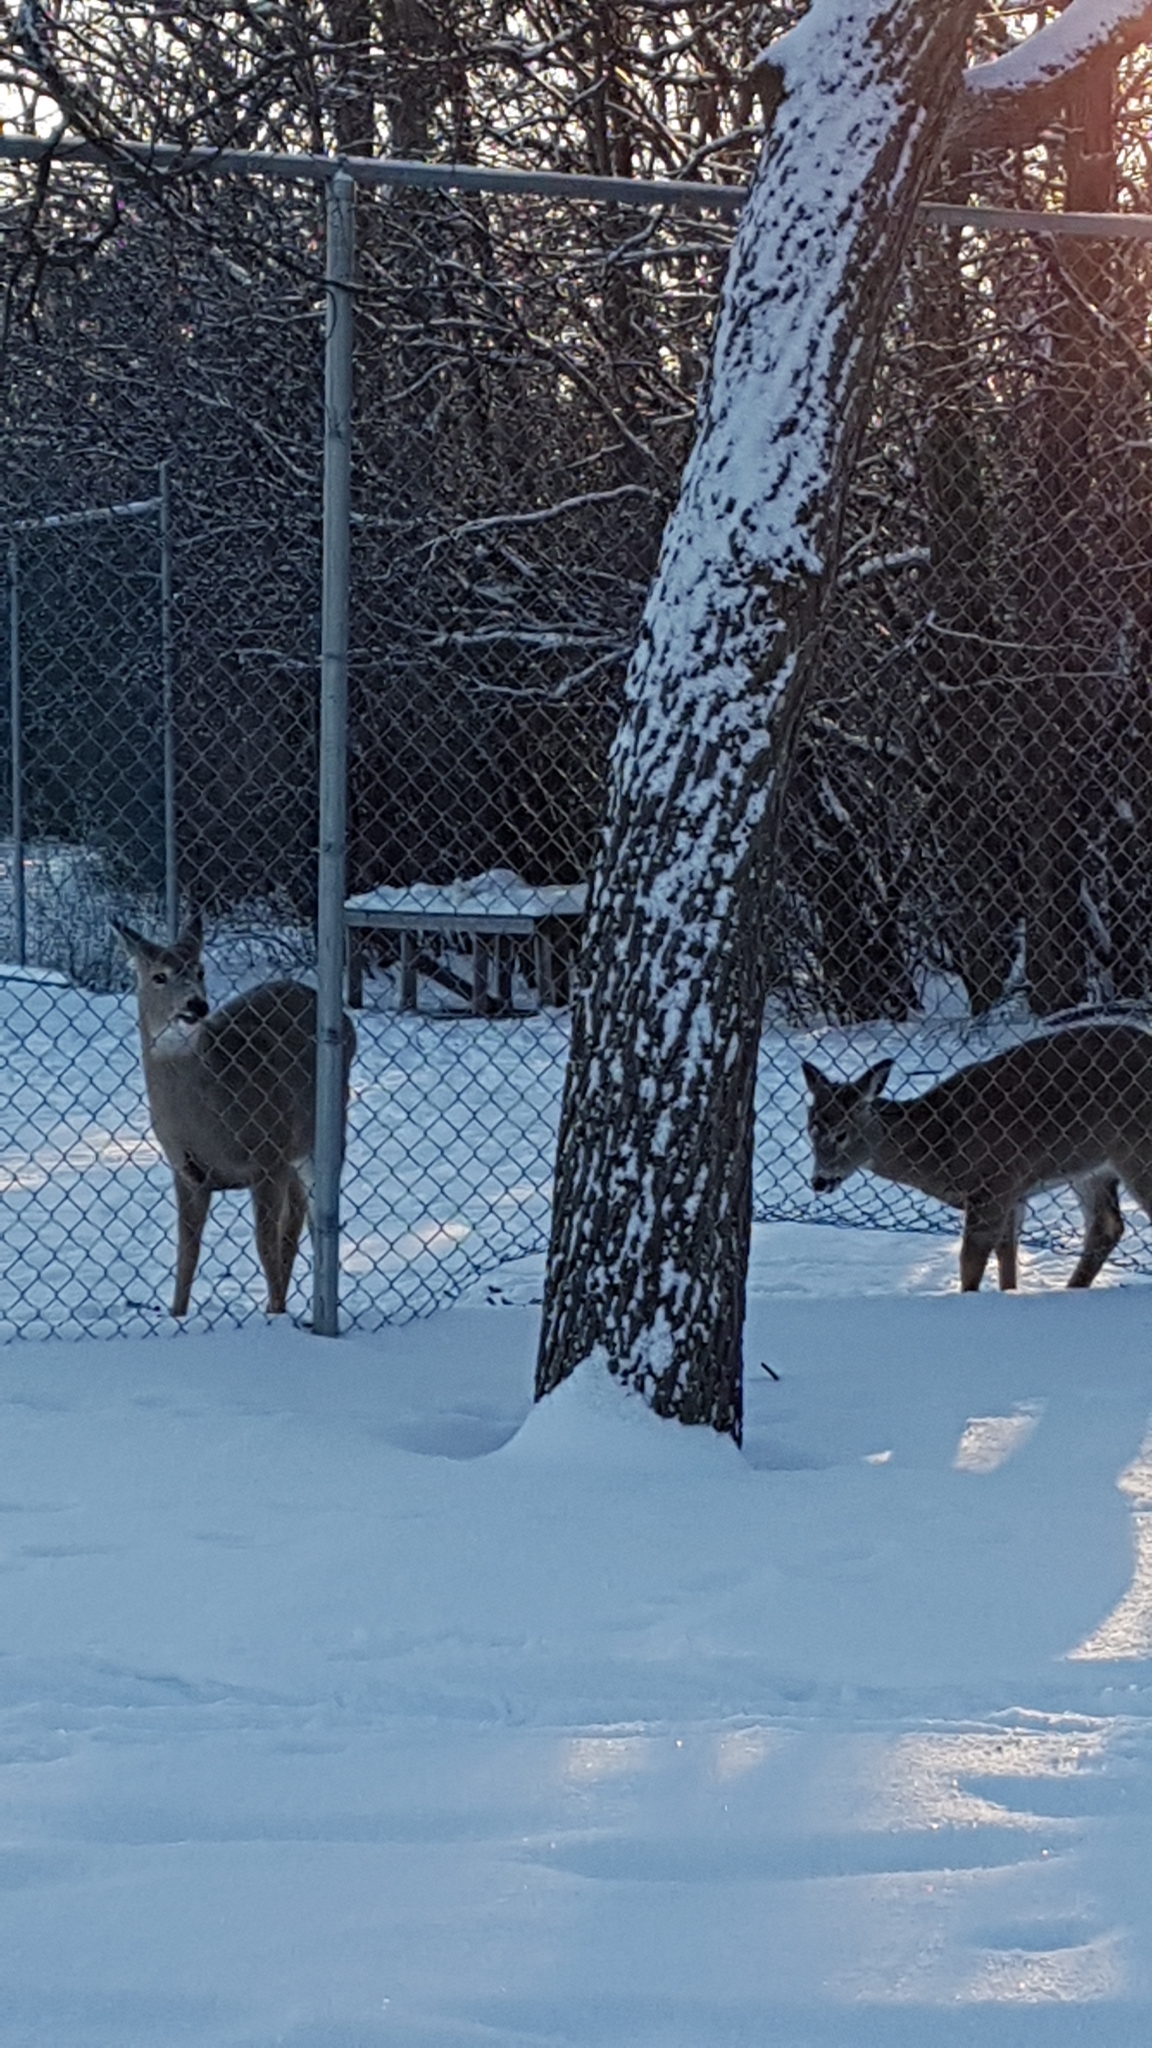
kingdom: Animalia
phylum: Chordata
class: Mammalia
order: Artiodactyla
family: Cervidae
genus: Odocoileus
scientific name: Odocoileus virginianus
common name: White-tailed deer
